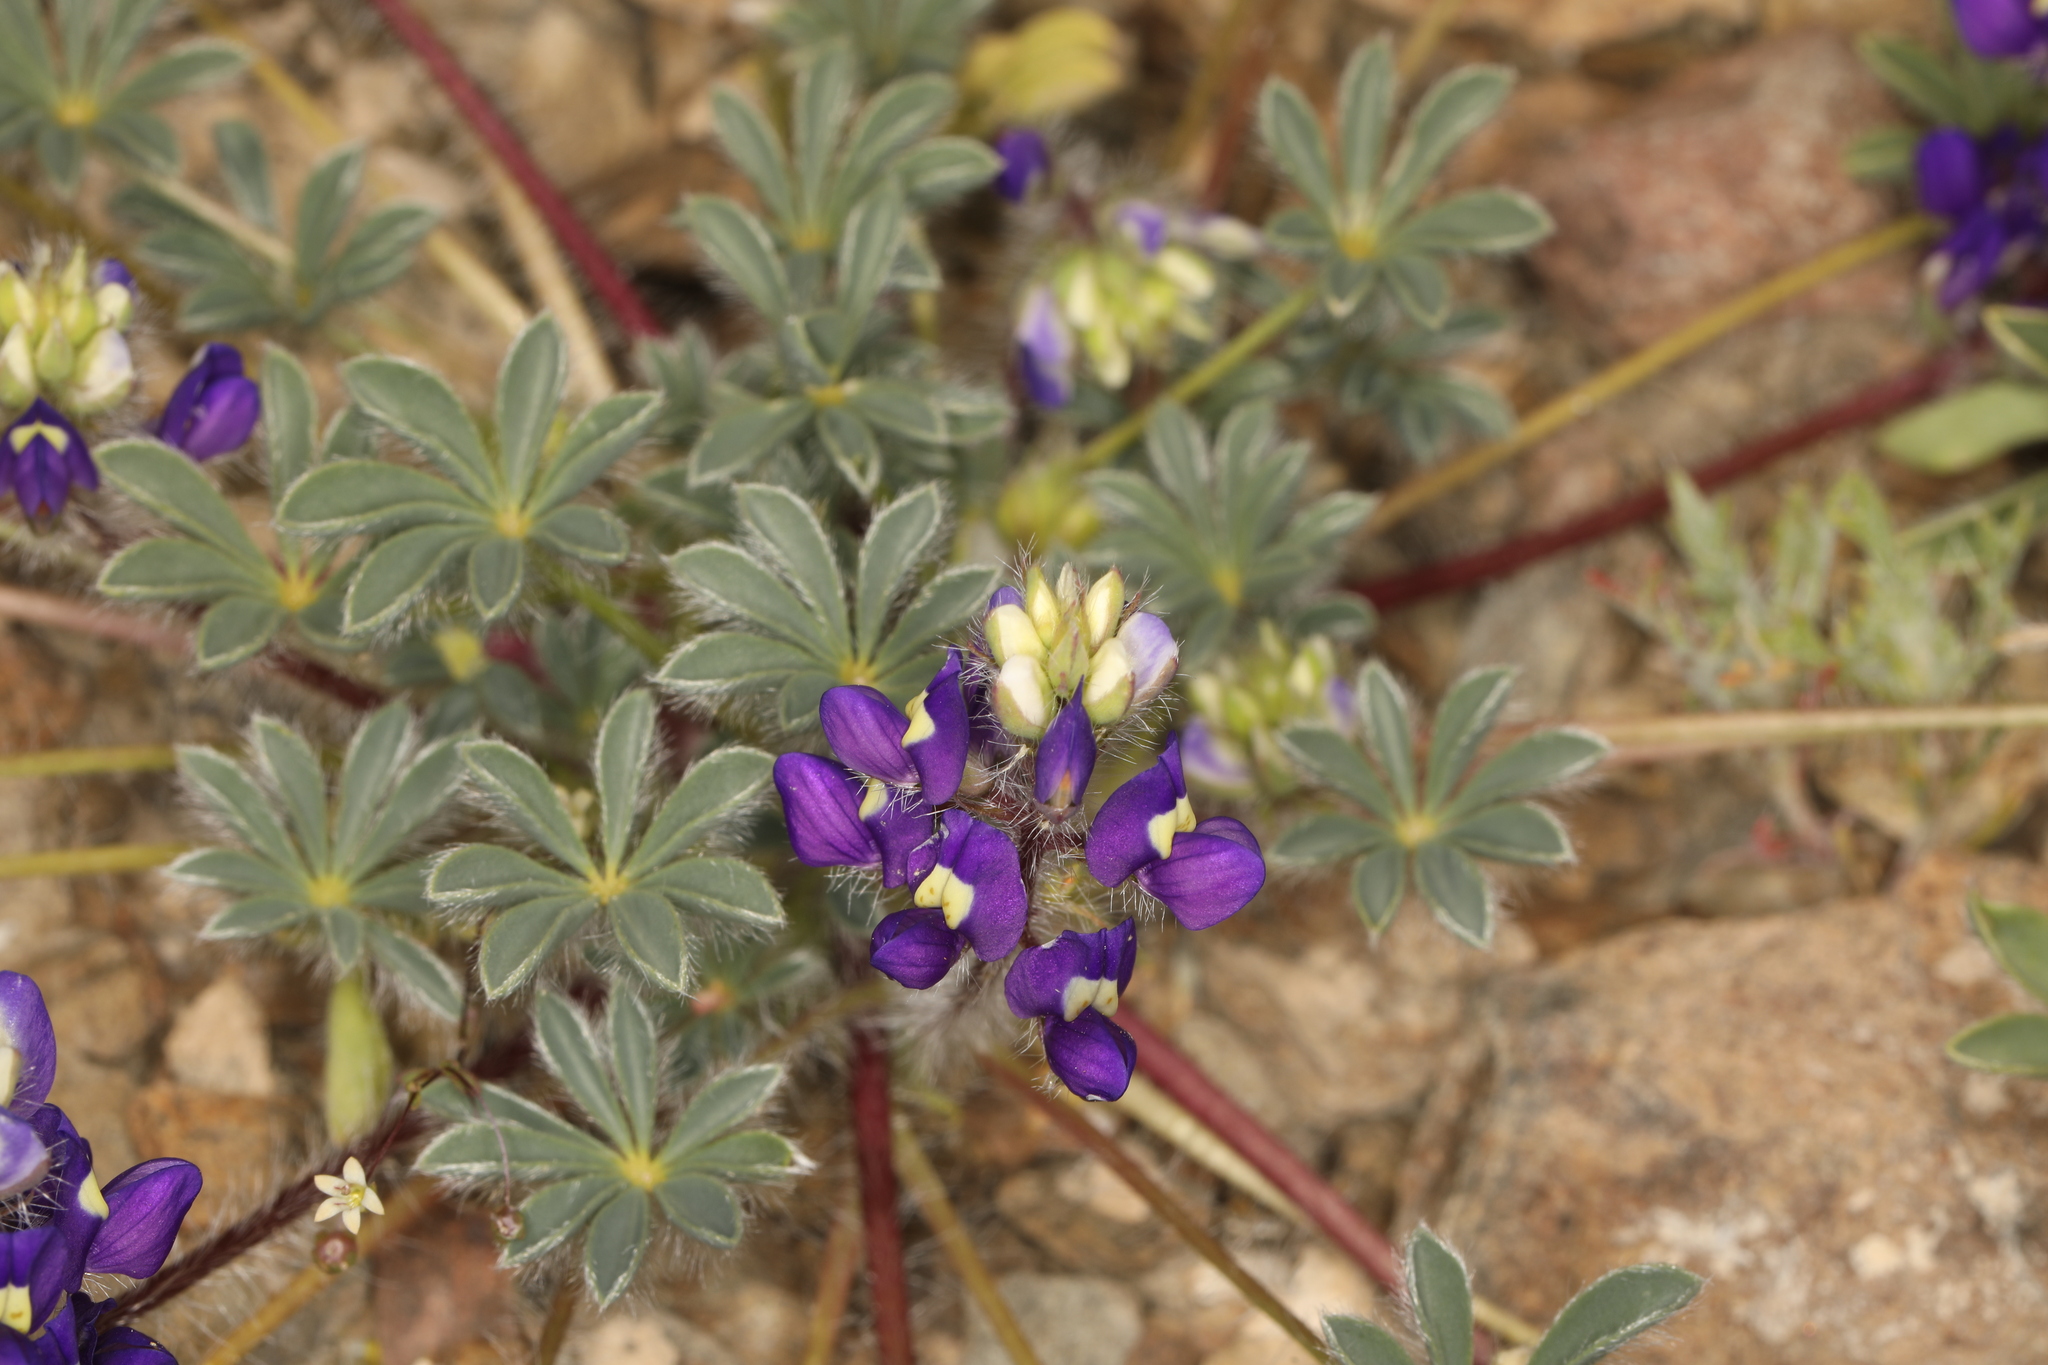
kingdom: Plantae
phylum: Tracheophyta
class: Magnoliopsida
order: Fabales
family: Fabaceae
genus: Lupinus
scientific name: Lupinus flavoculatus
